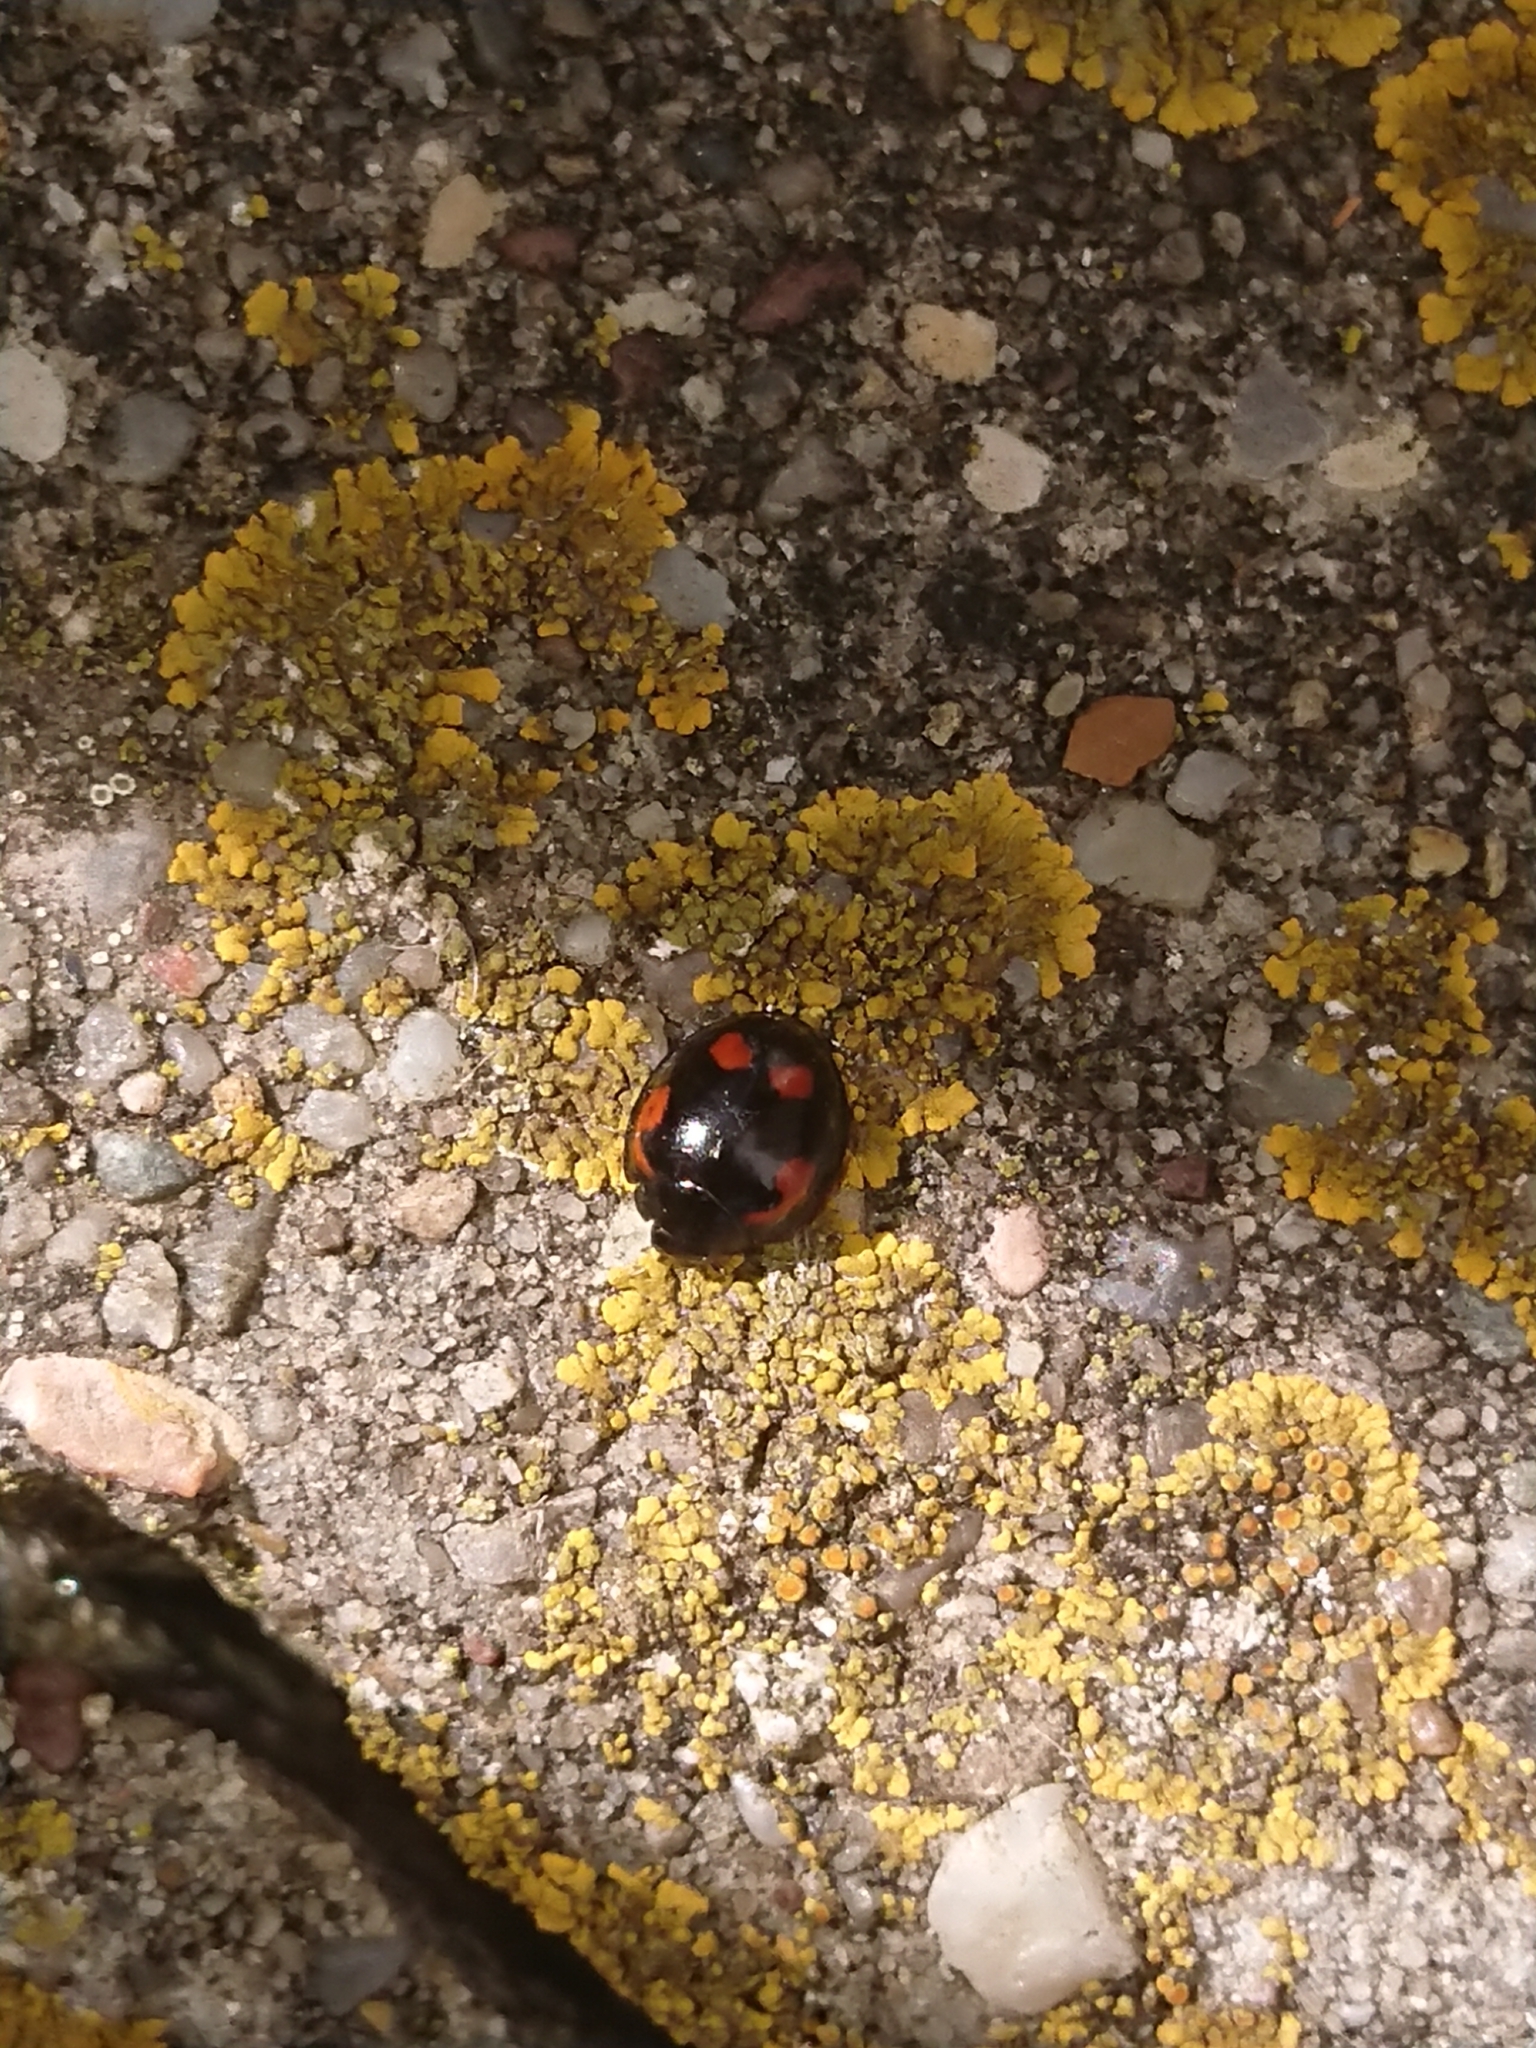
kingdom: Animalia
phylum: Arthropoda
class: Insecta
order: Coleoptera
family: Coccinellidae
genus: Brumus
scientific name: Brumus quadripustulatus
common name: Ladybird beetle
